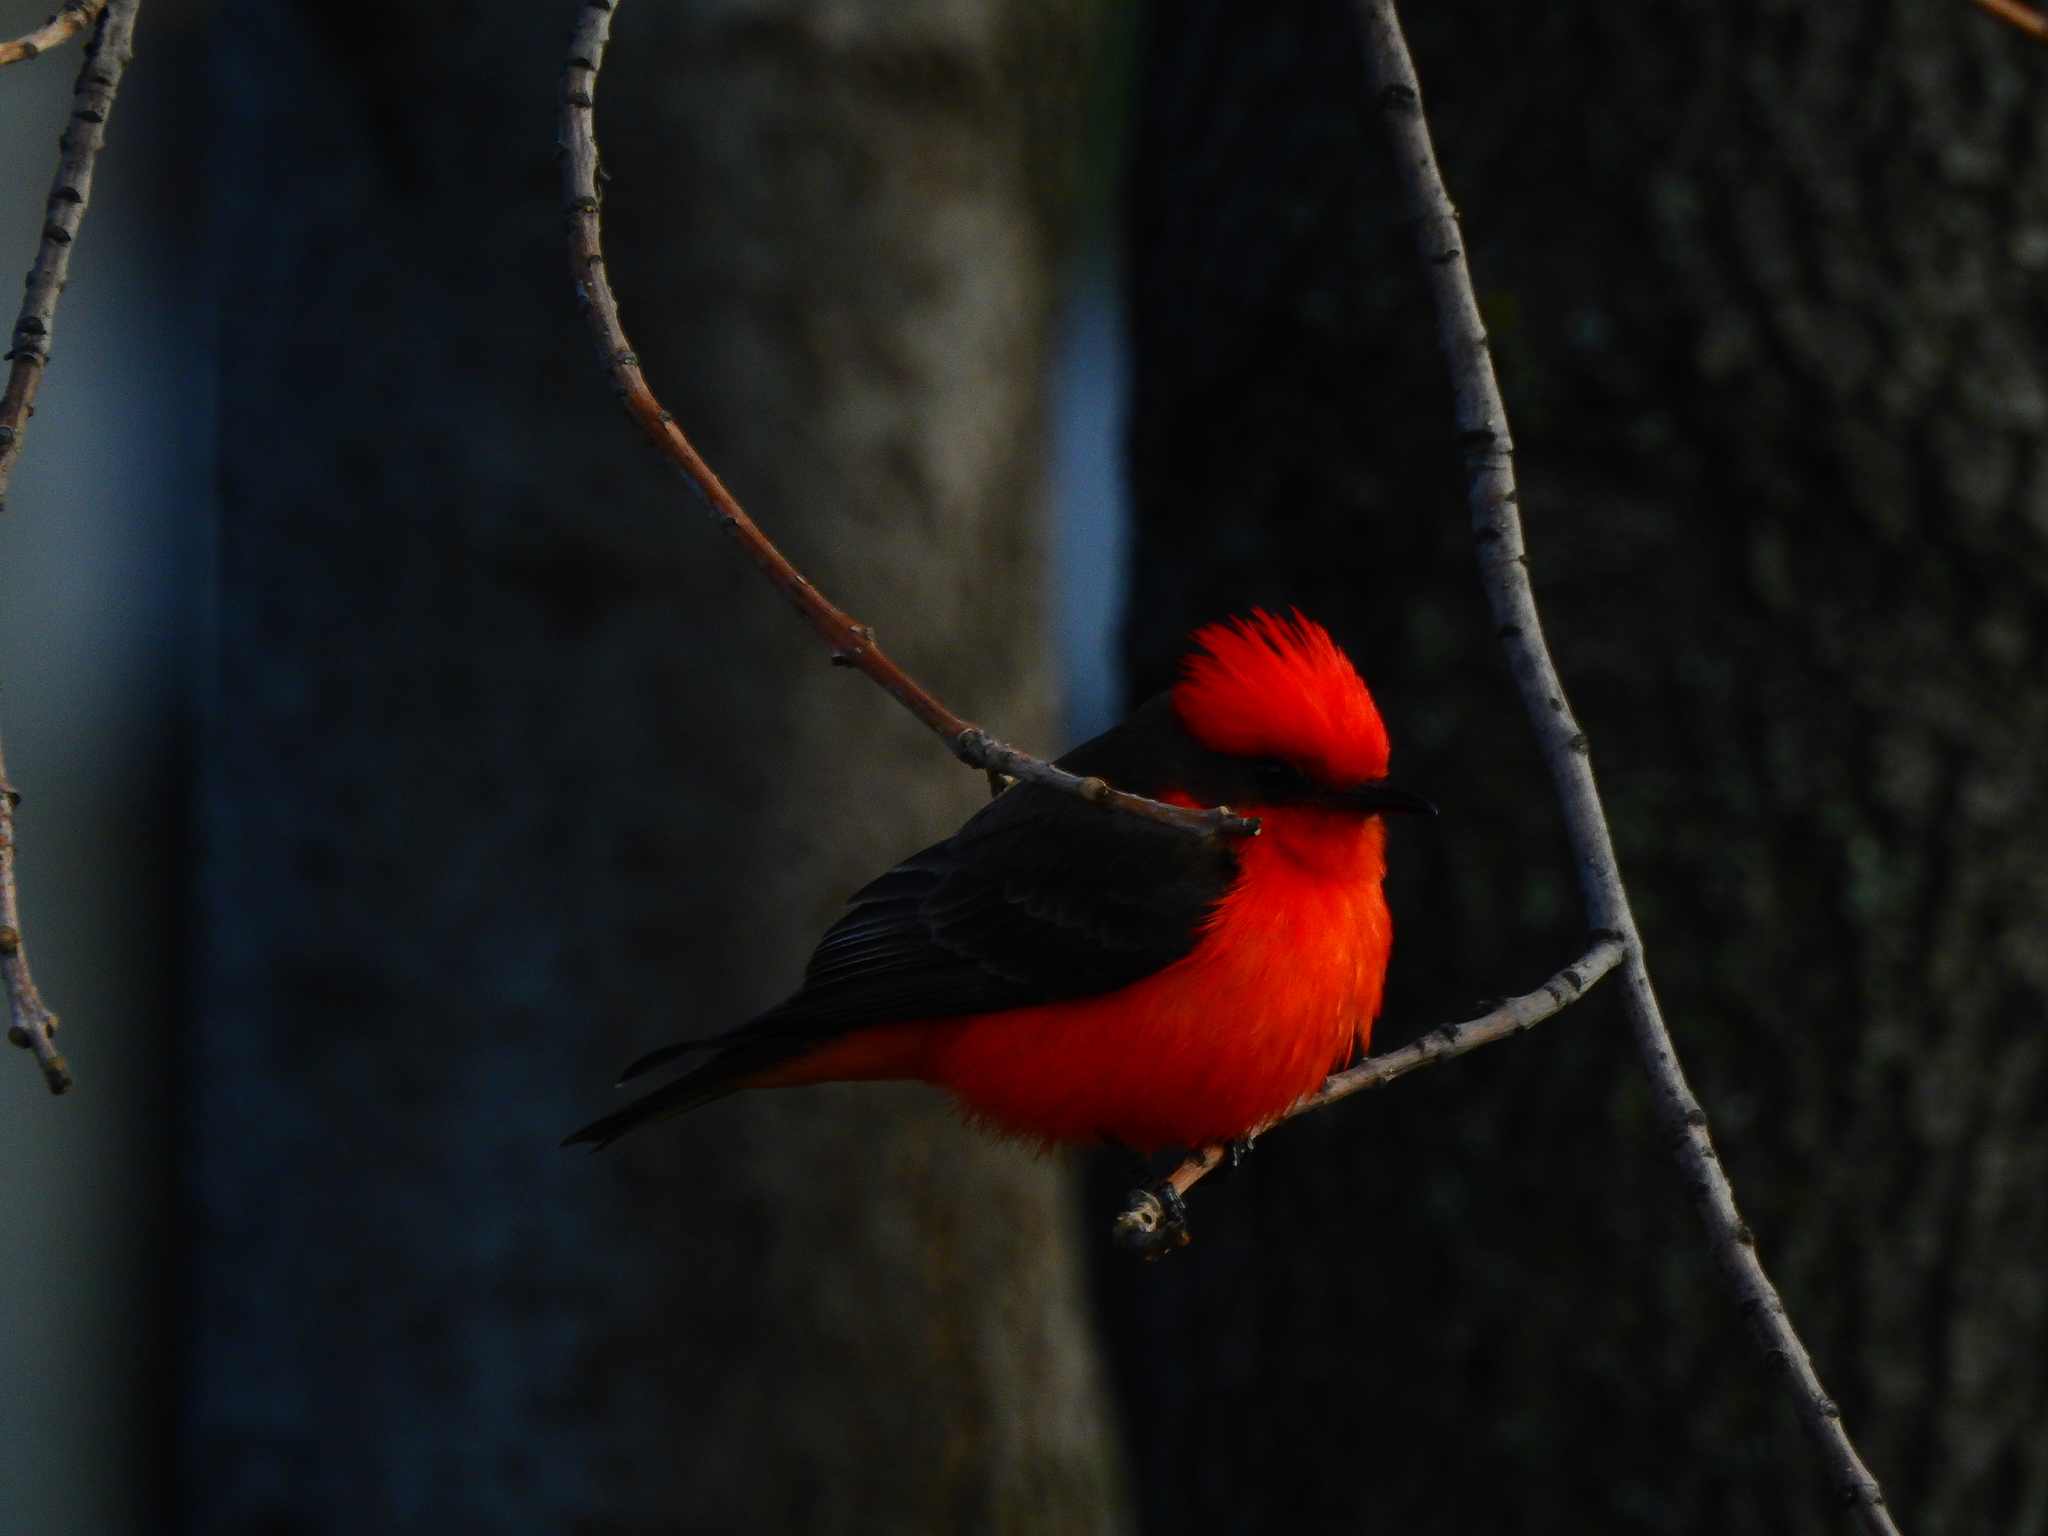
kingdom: Animalia
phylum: Chordata
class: Aves
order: Passeriformes
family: Tyrannidae
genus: Pyrocephalus
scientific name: Pyrocephalus rubinus
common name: Vermilion flycatcher
